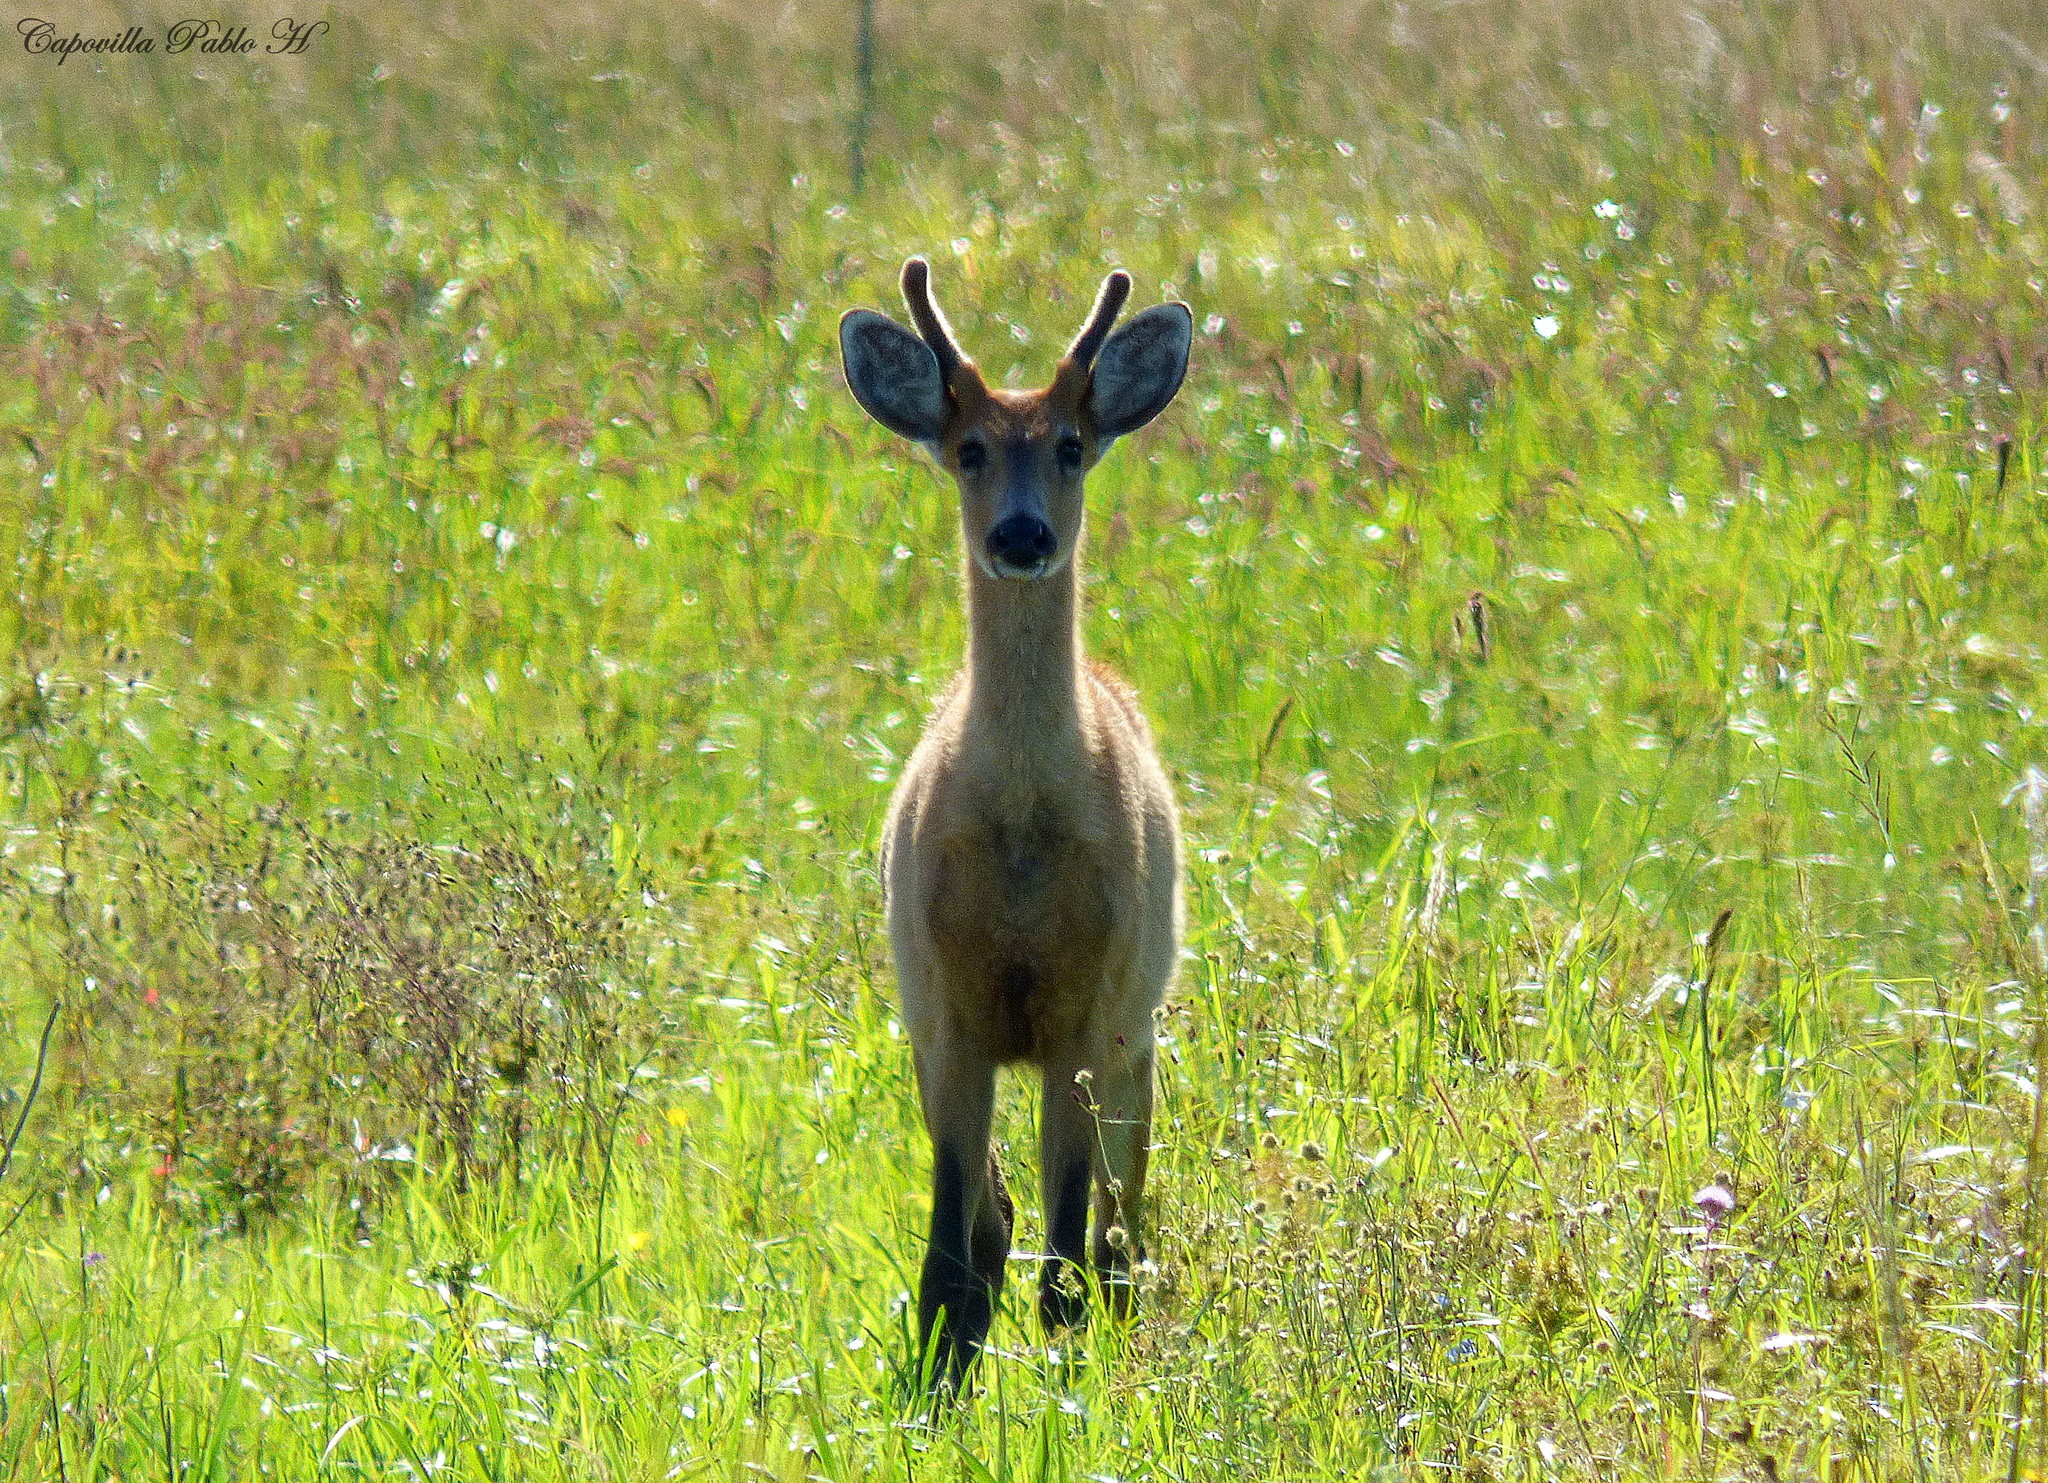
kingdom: Animalia
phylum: Chordata
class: Mammalia
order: Artiodactyla
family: Cervidae
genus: Blastocerus
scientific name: Blastocerus dichotomus
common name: Marsh deer
